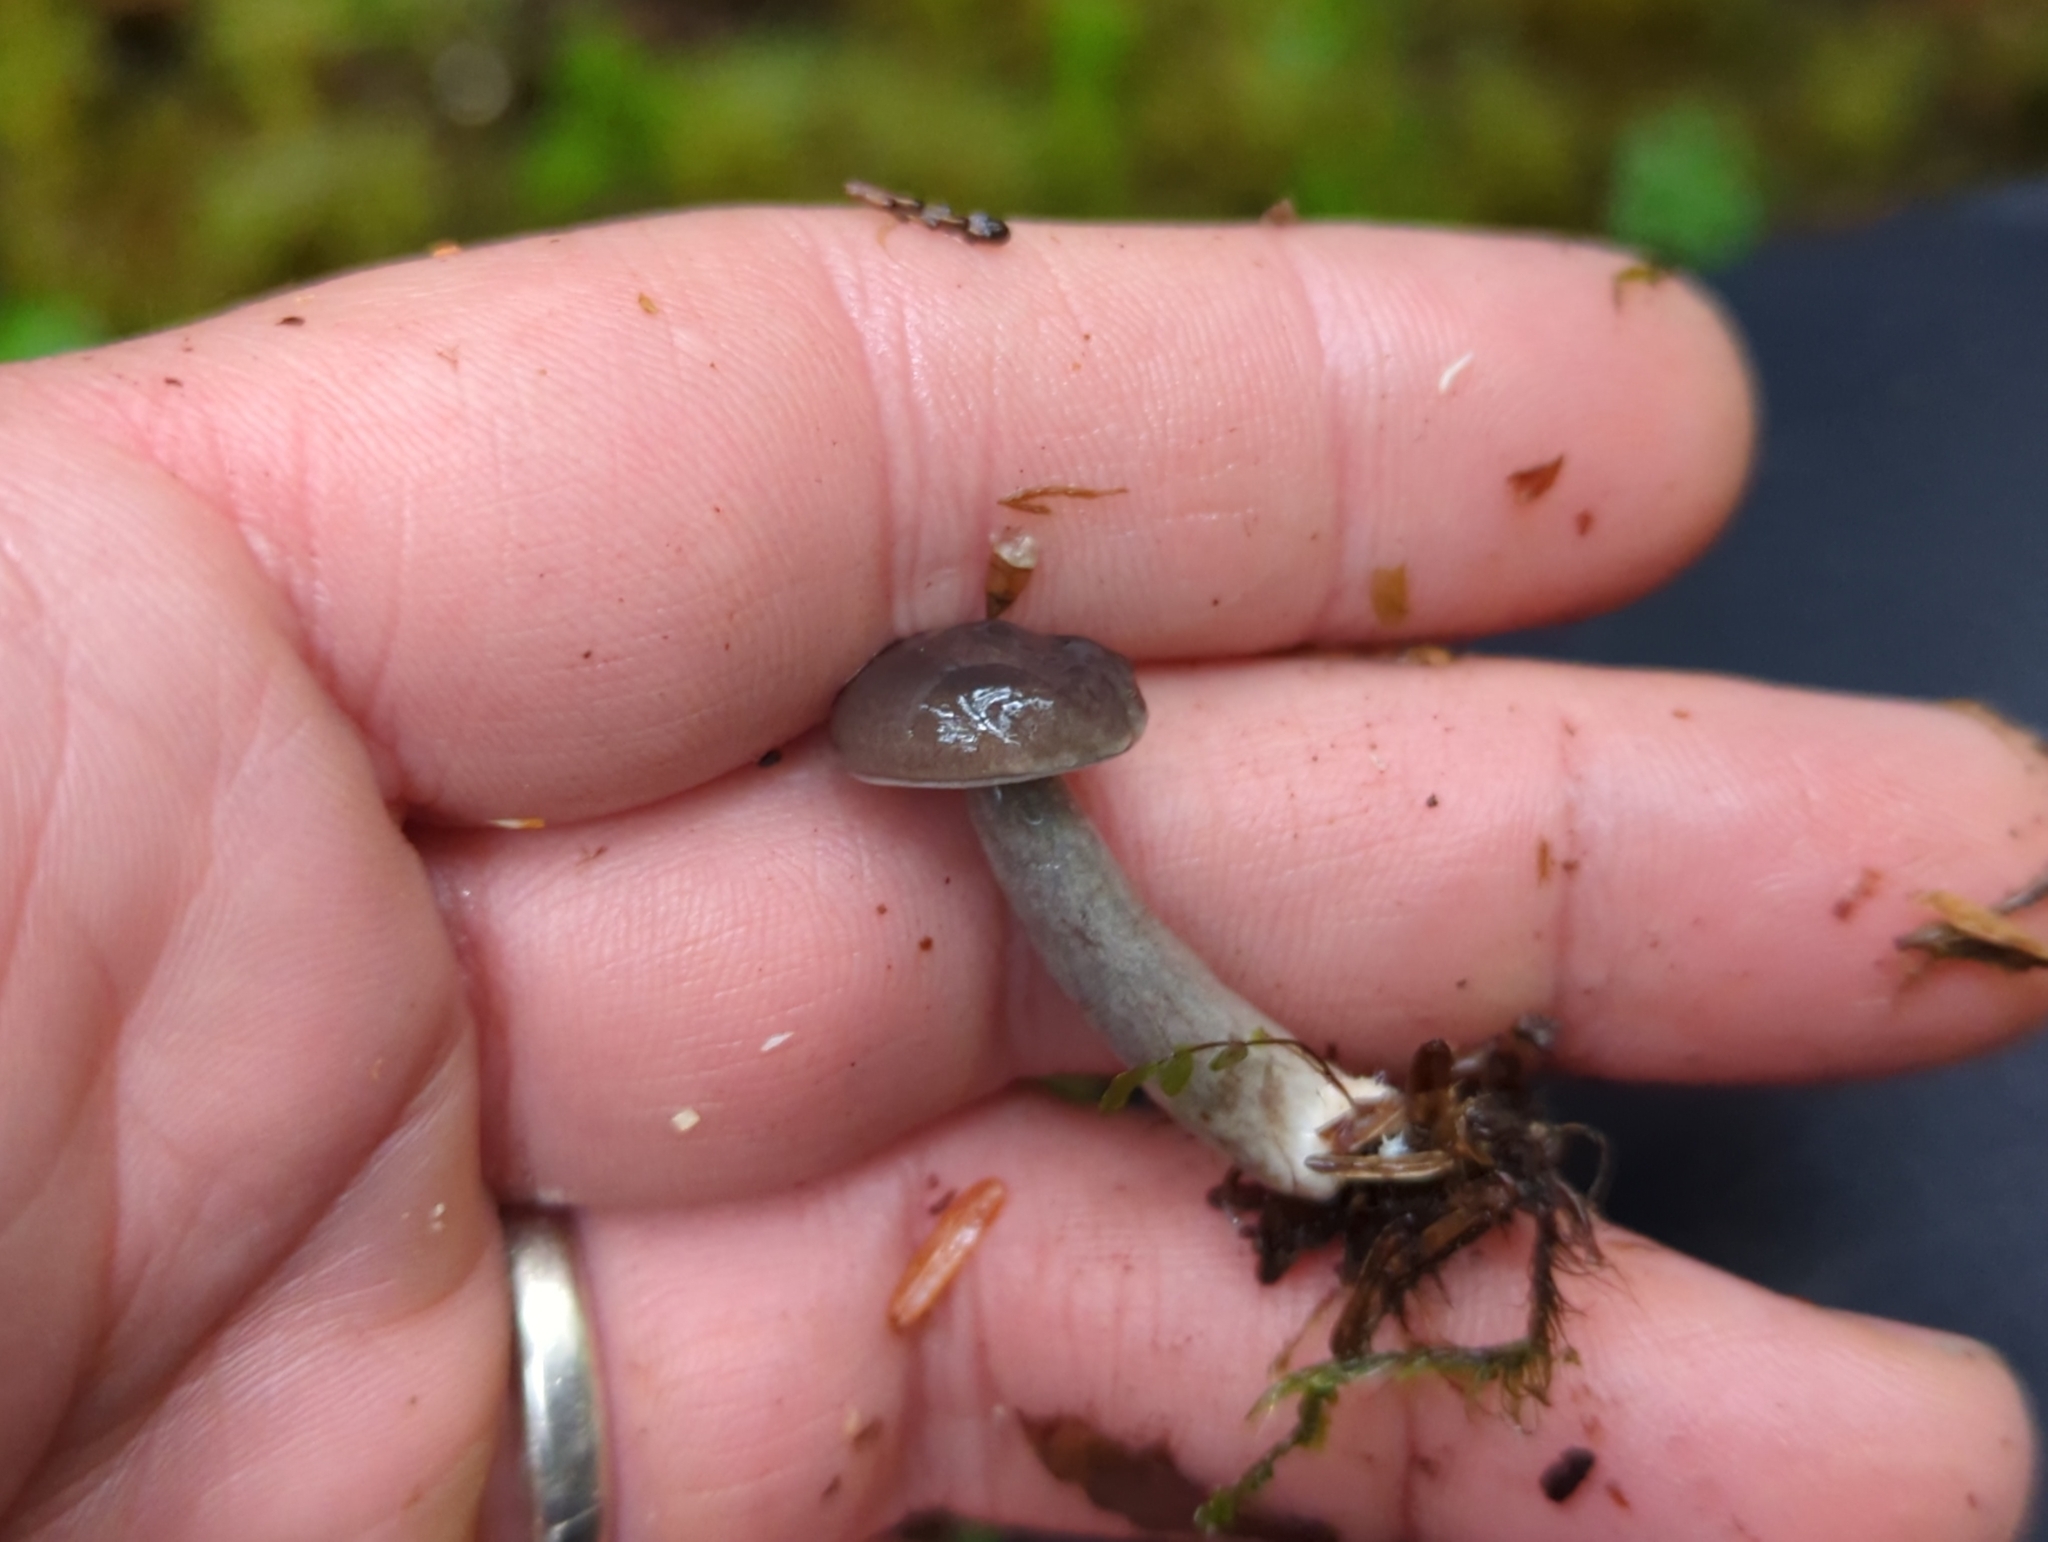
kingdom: Fungi
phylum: Basidiomycota
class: Agaricomycetes
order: Russulales
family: Russulaceae
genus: Lactarius
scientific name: Lactarius pseudomucidus
